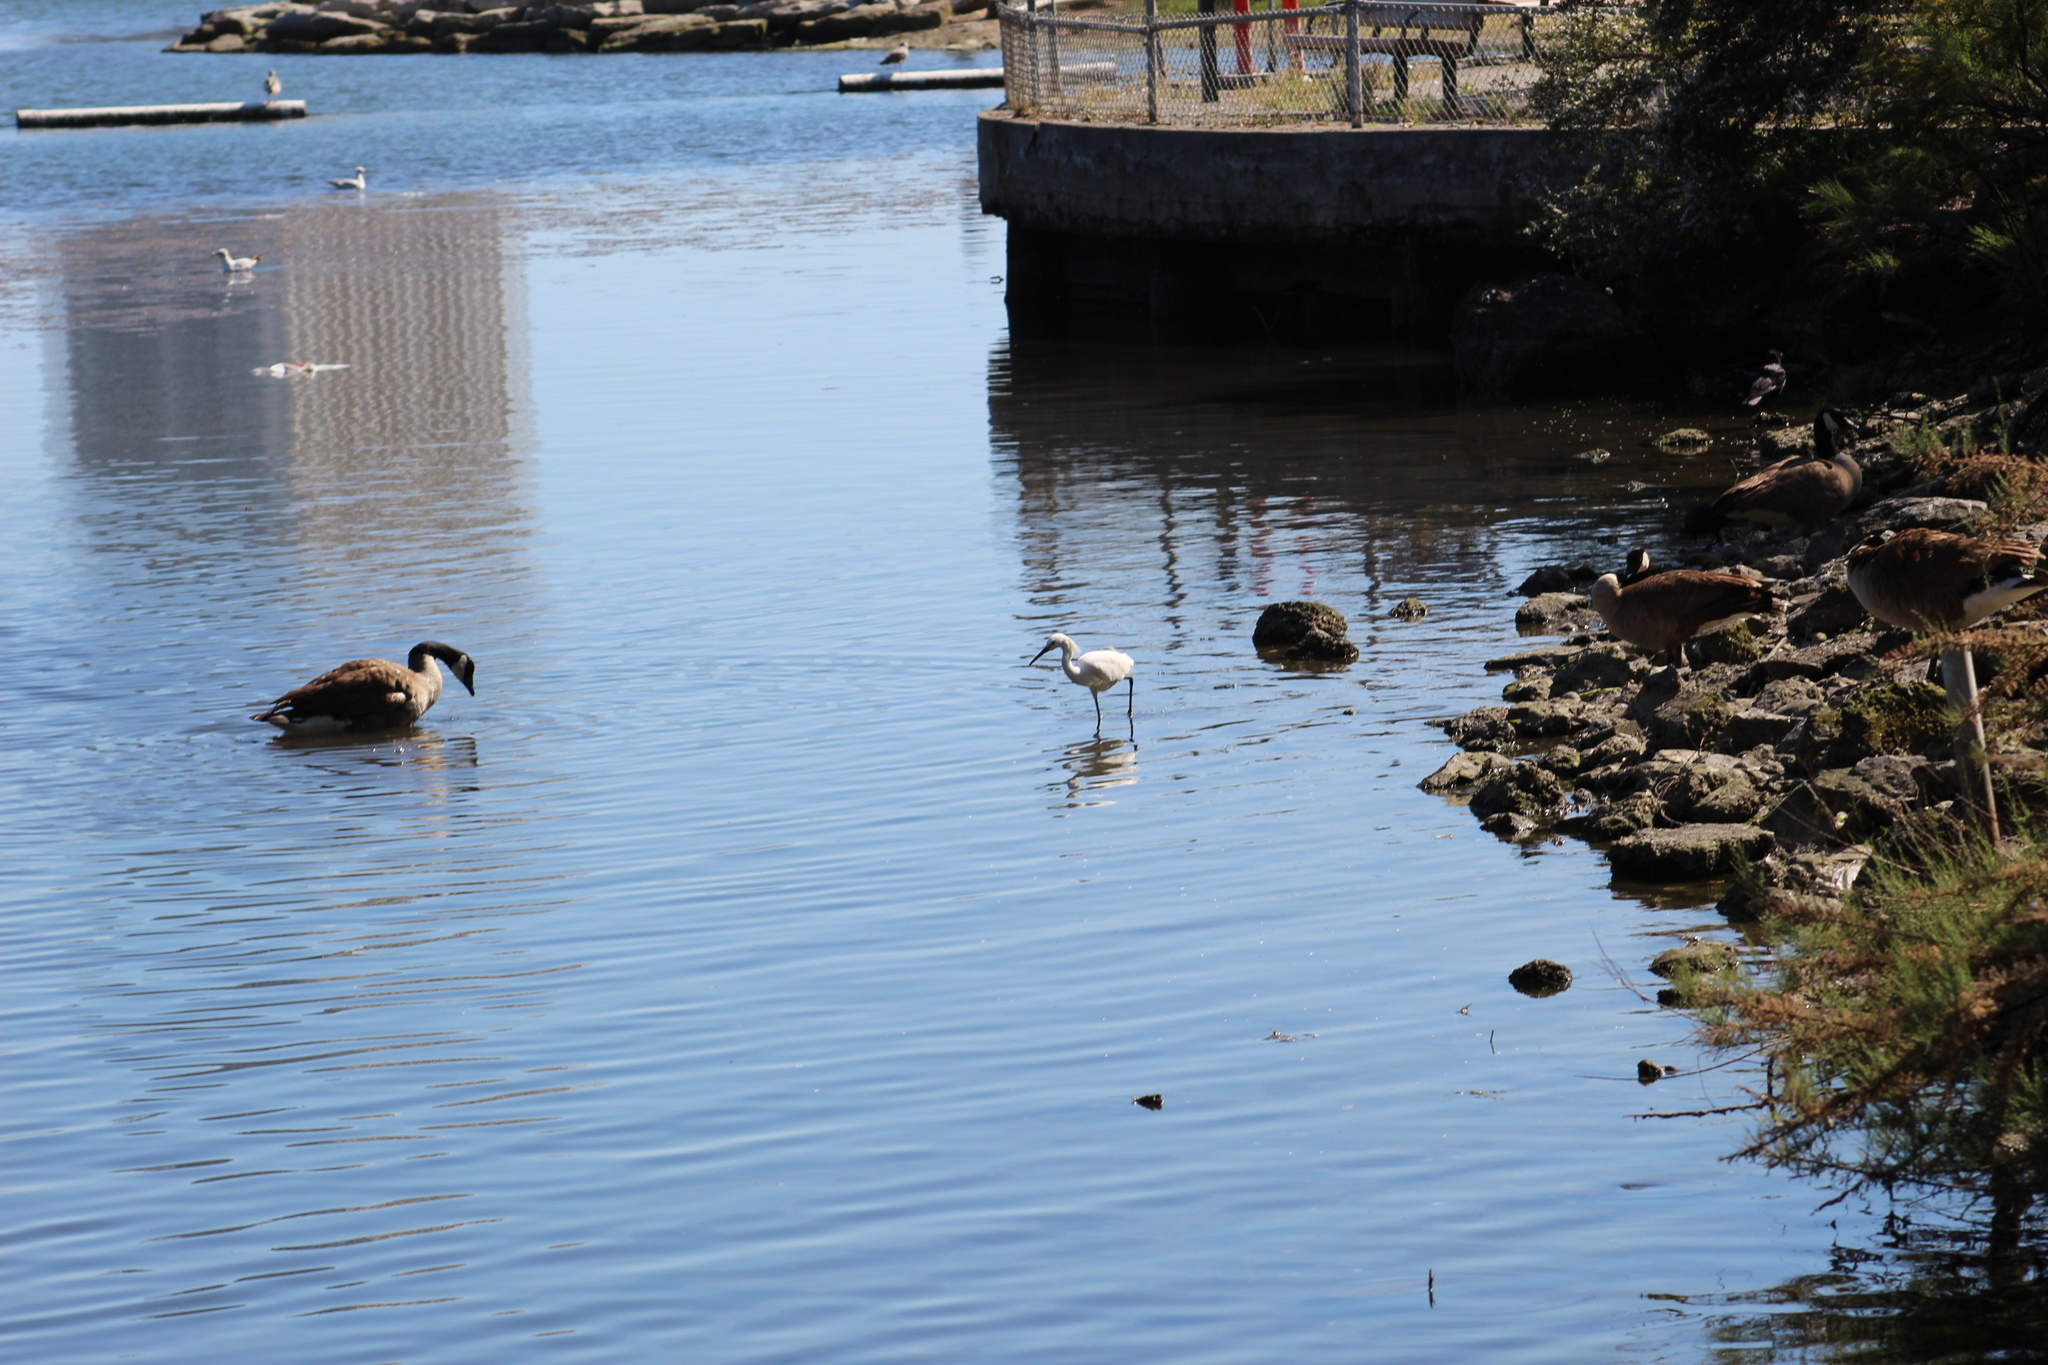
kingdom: Animalia
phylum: Chordata
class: Aves
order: Pelecaniformes
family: Ardeidae
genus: Egretta
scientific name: Egretta thula
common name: Snowy egret
